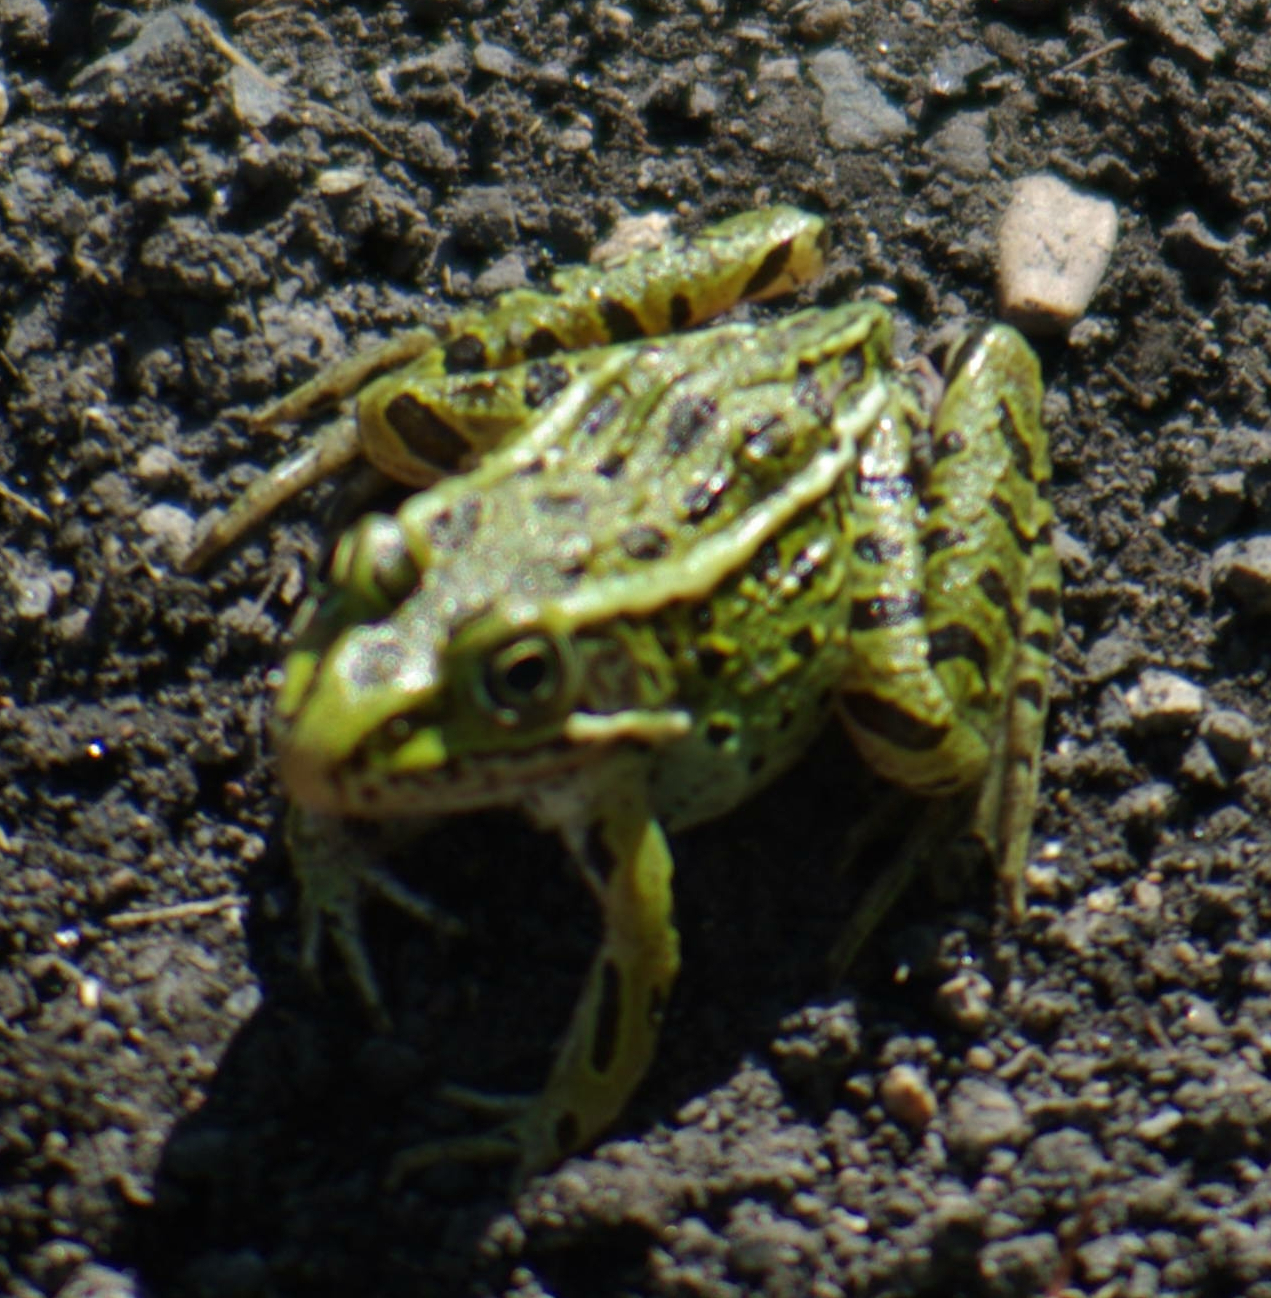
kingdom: Animalia
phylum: Chordata
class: Amphibia
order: Anura
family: Ranidae
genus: Lithobates
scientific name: Lithobates pipiens
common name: Northern leopard frog
